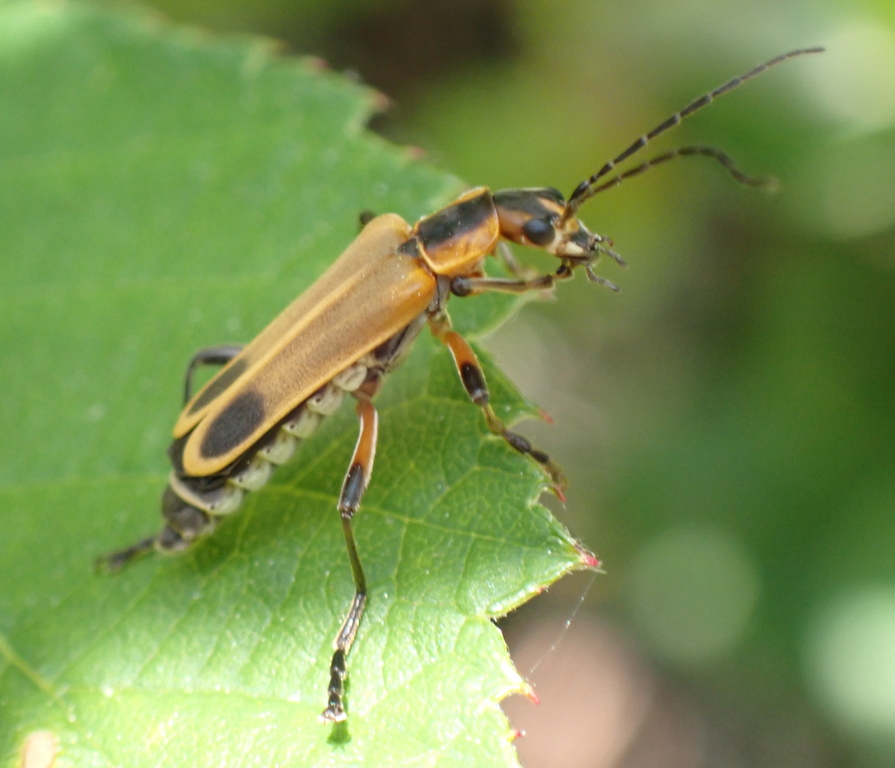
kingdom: Animalia
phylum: Arthropoda
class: Insecta
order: Coleoptera
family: Cantharidae
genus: Chauliognathus
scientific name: Chauliognathus marginatus
